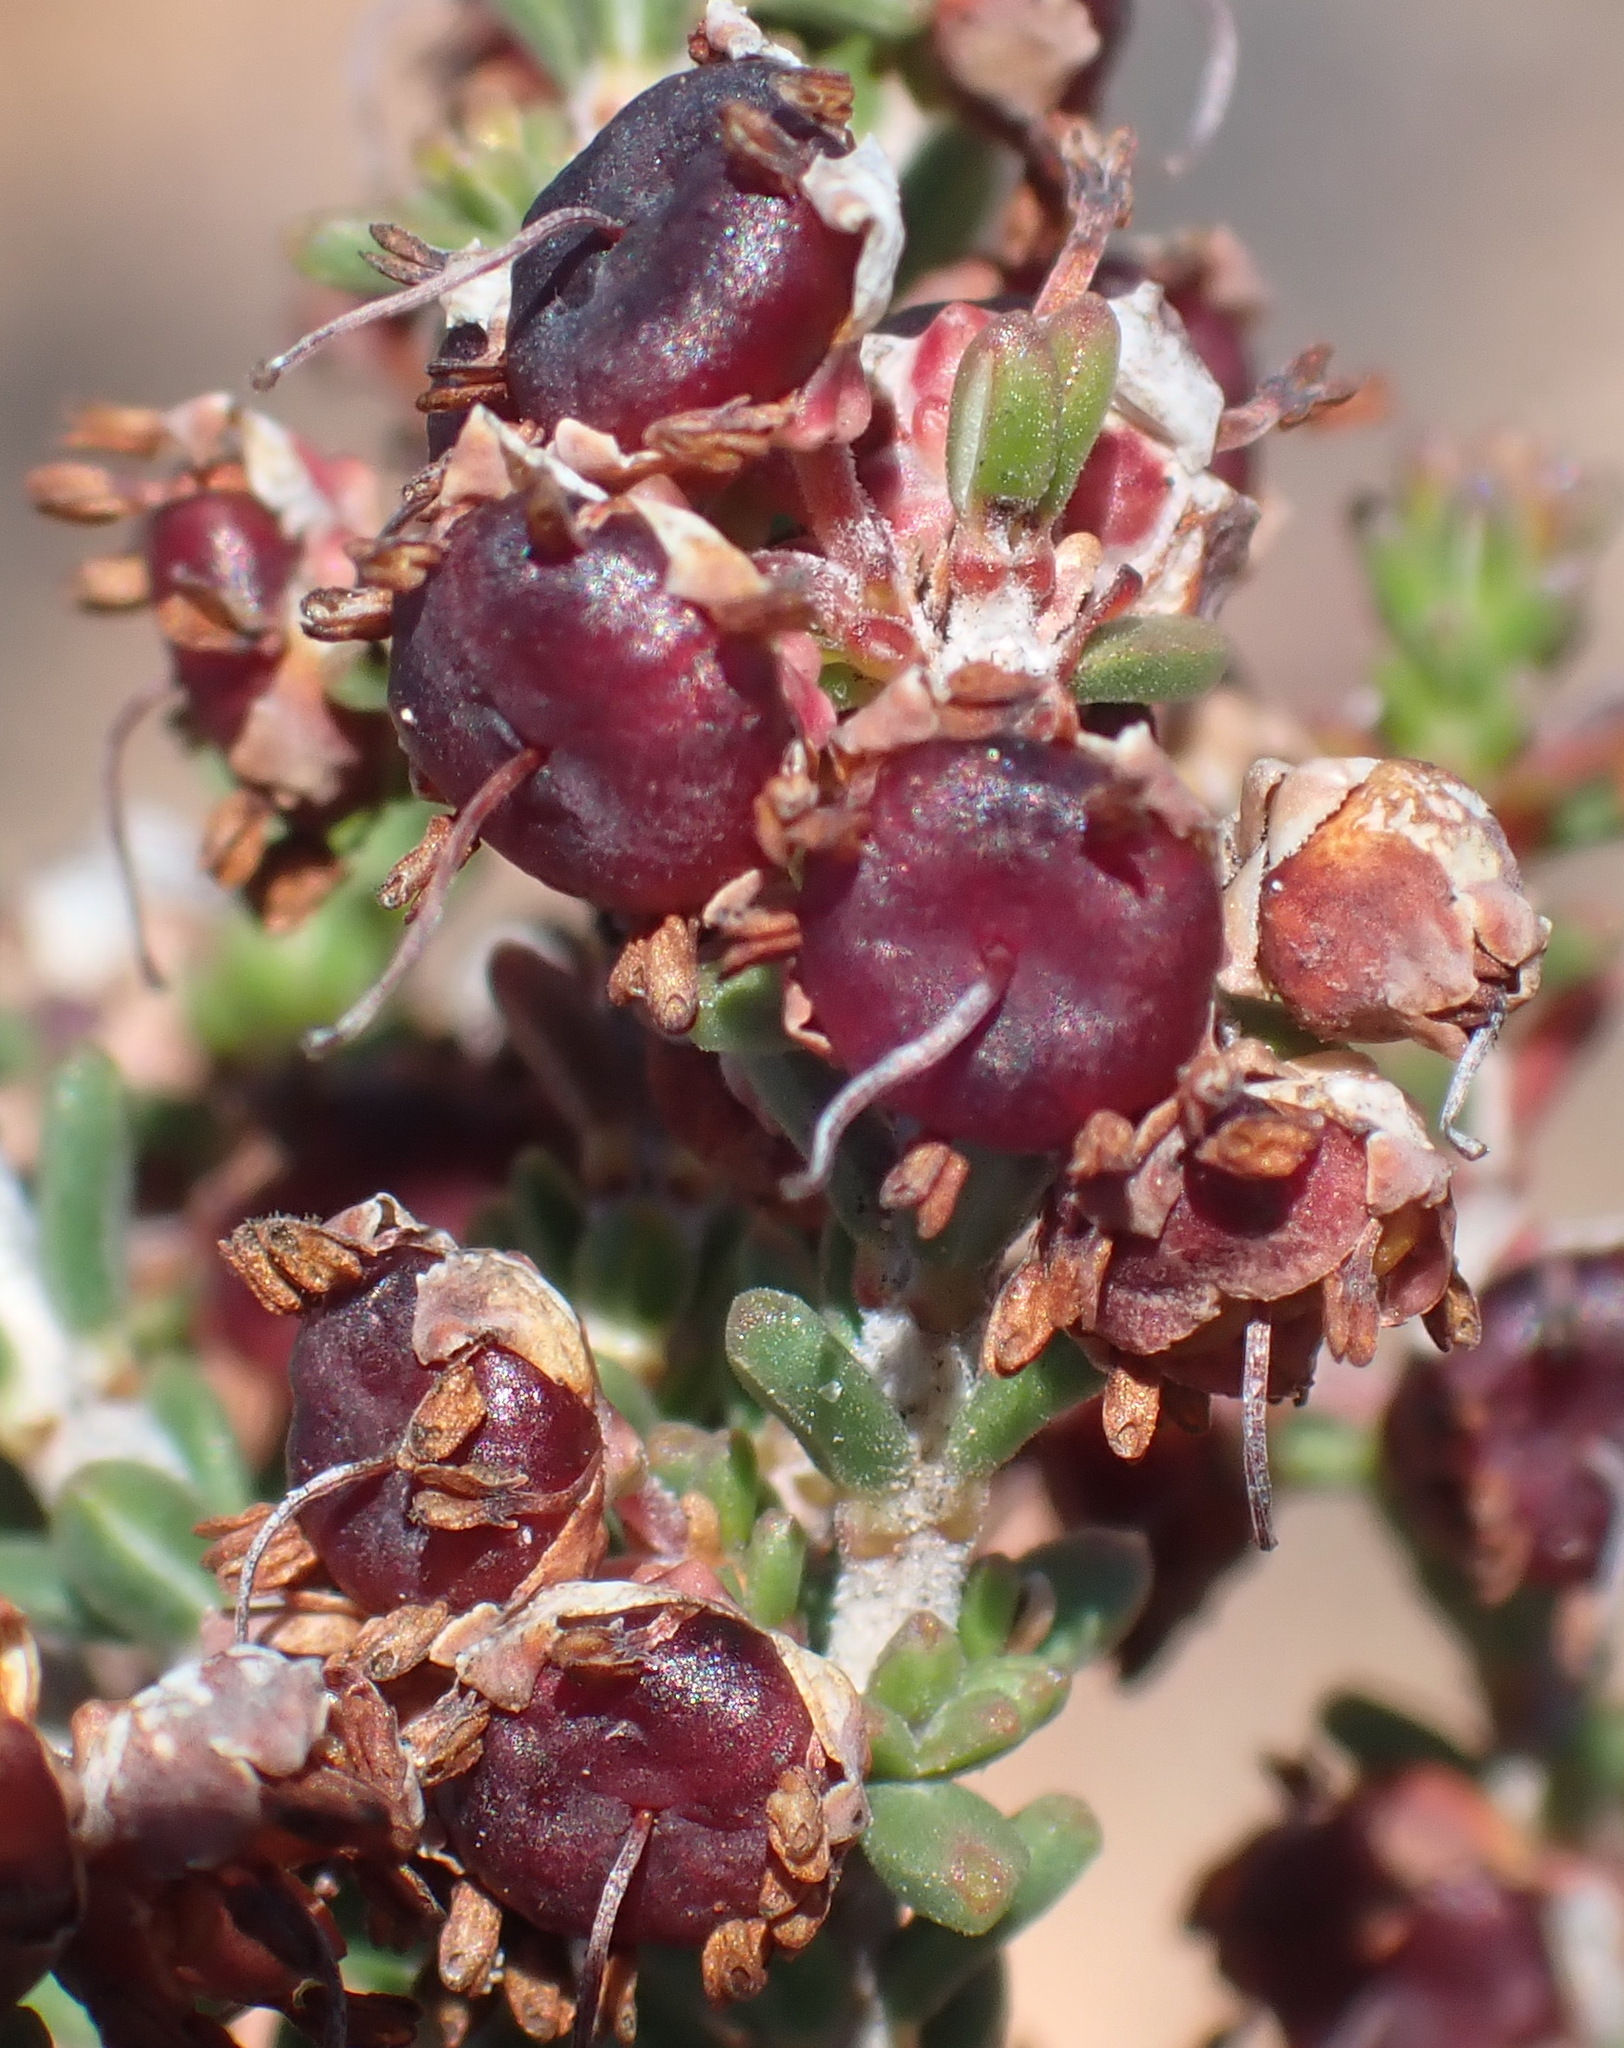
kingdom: Plantae
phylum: Tracheophyta
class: Magnoliopsida
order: Ericales
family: Ericaceae
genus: Erica
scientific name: Erica umbelliflora
